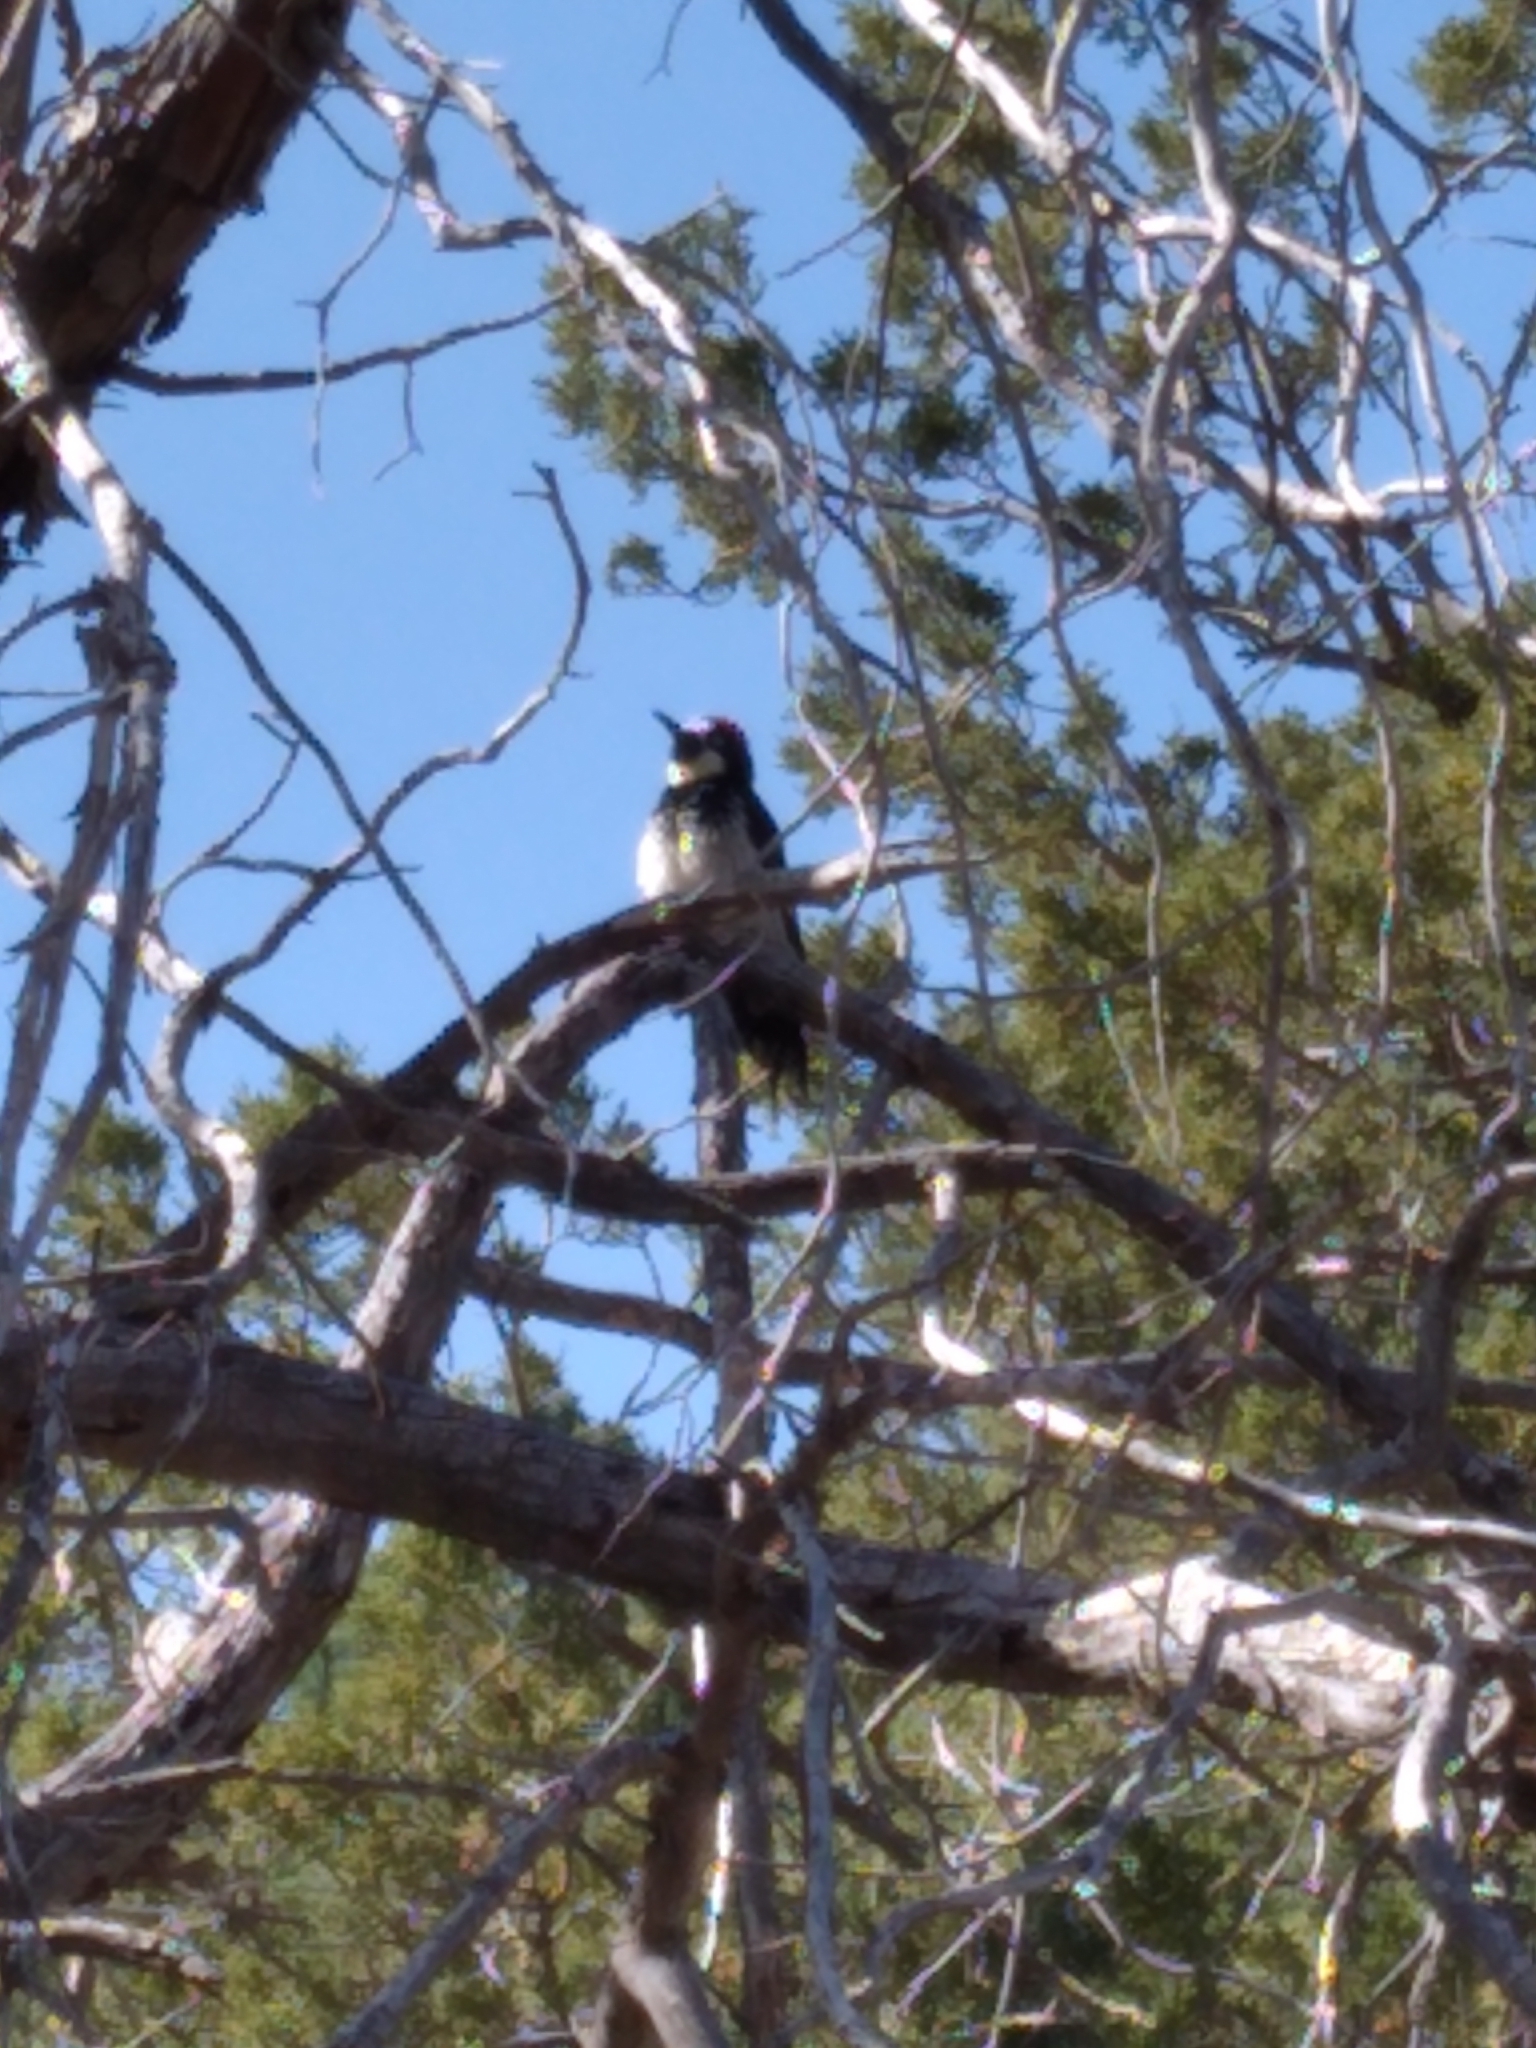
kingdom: Animalia
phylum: Chordata
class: Aves
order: Piciformes
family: Picidae
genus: Melanerpes
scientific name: Melanerpes formicivorus
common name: Acorn woodpecker
